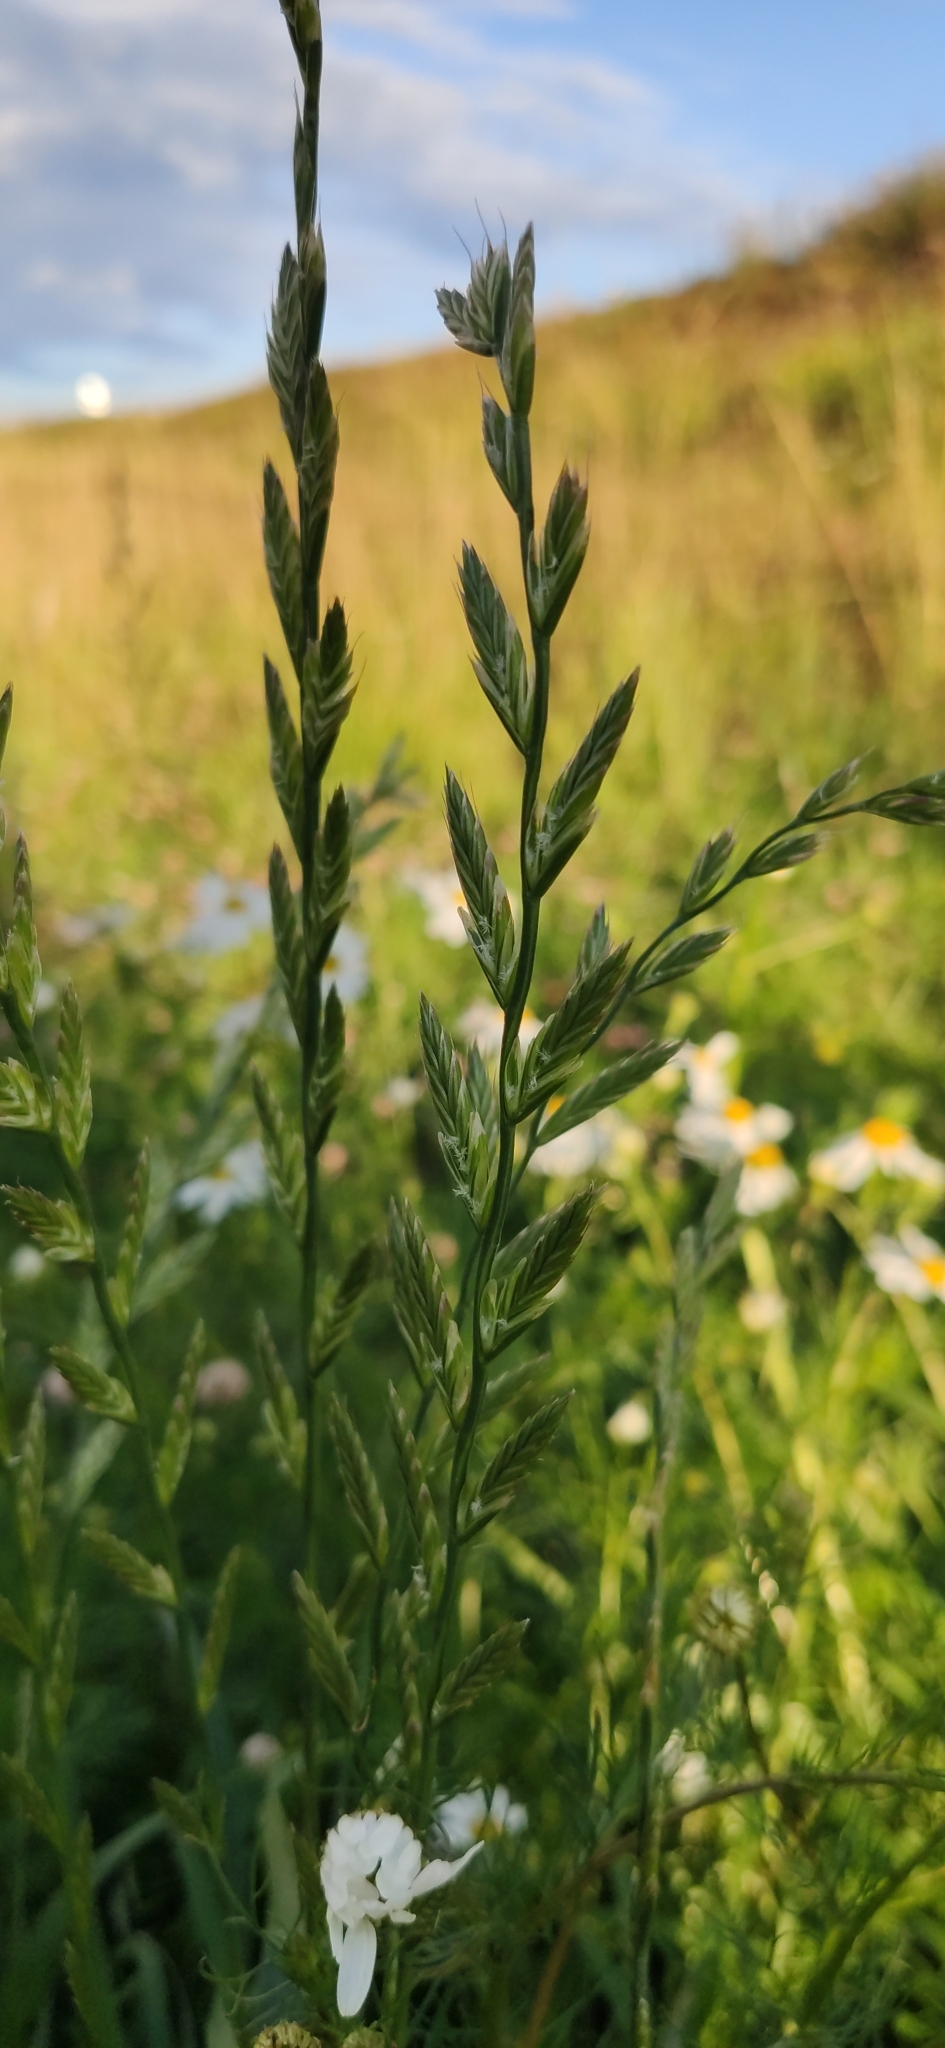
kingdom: Plantae
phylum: Tracheophyta
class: Liliopsida
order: Poales
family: Poaceae
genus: Lolium
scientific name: Lolium perenne
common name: Perennial ryegrass
